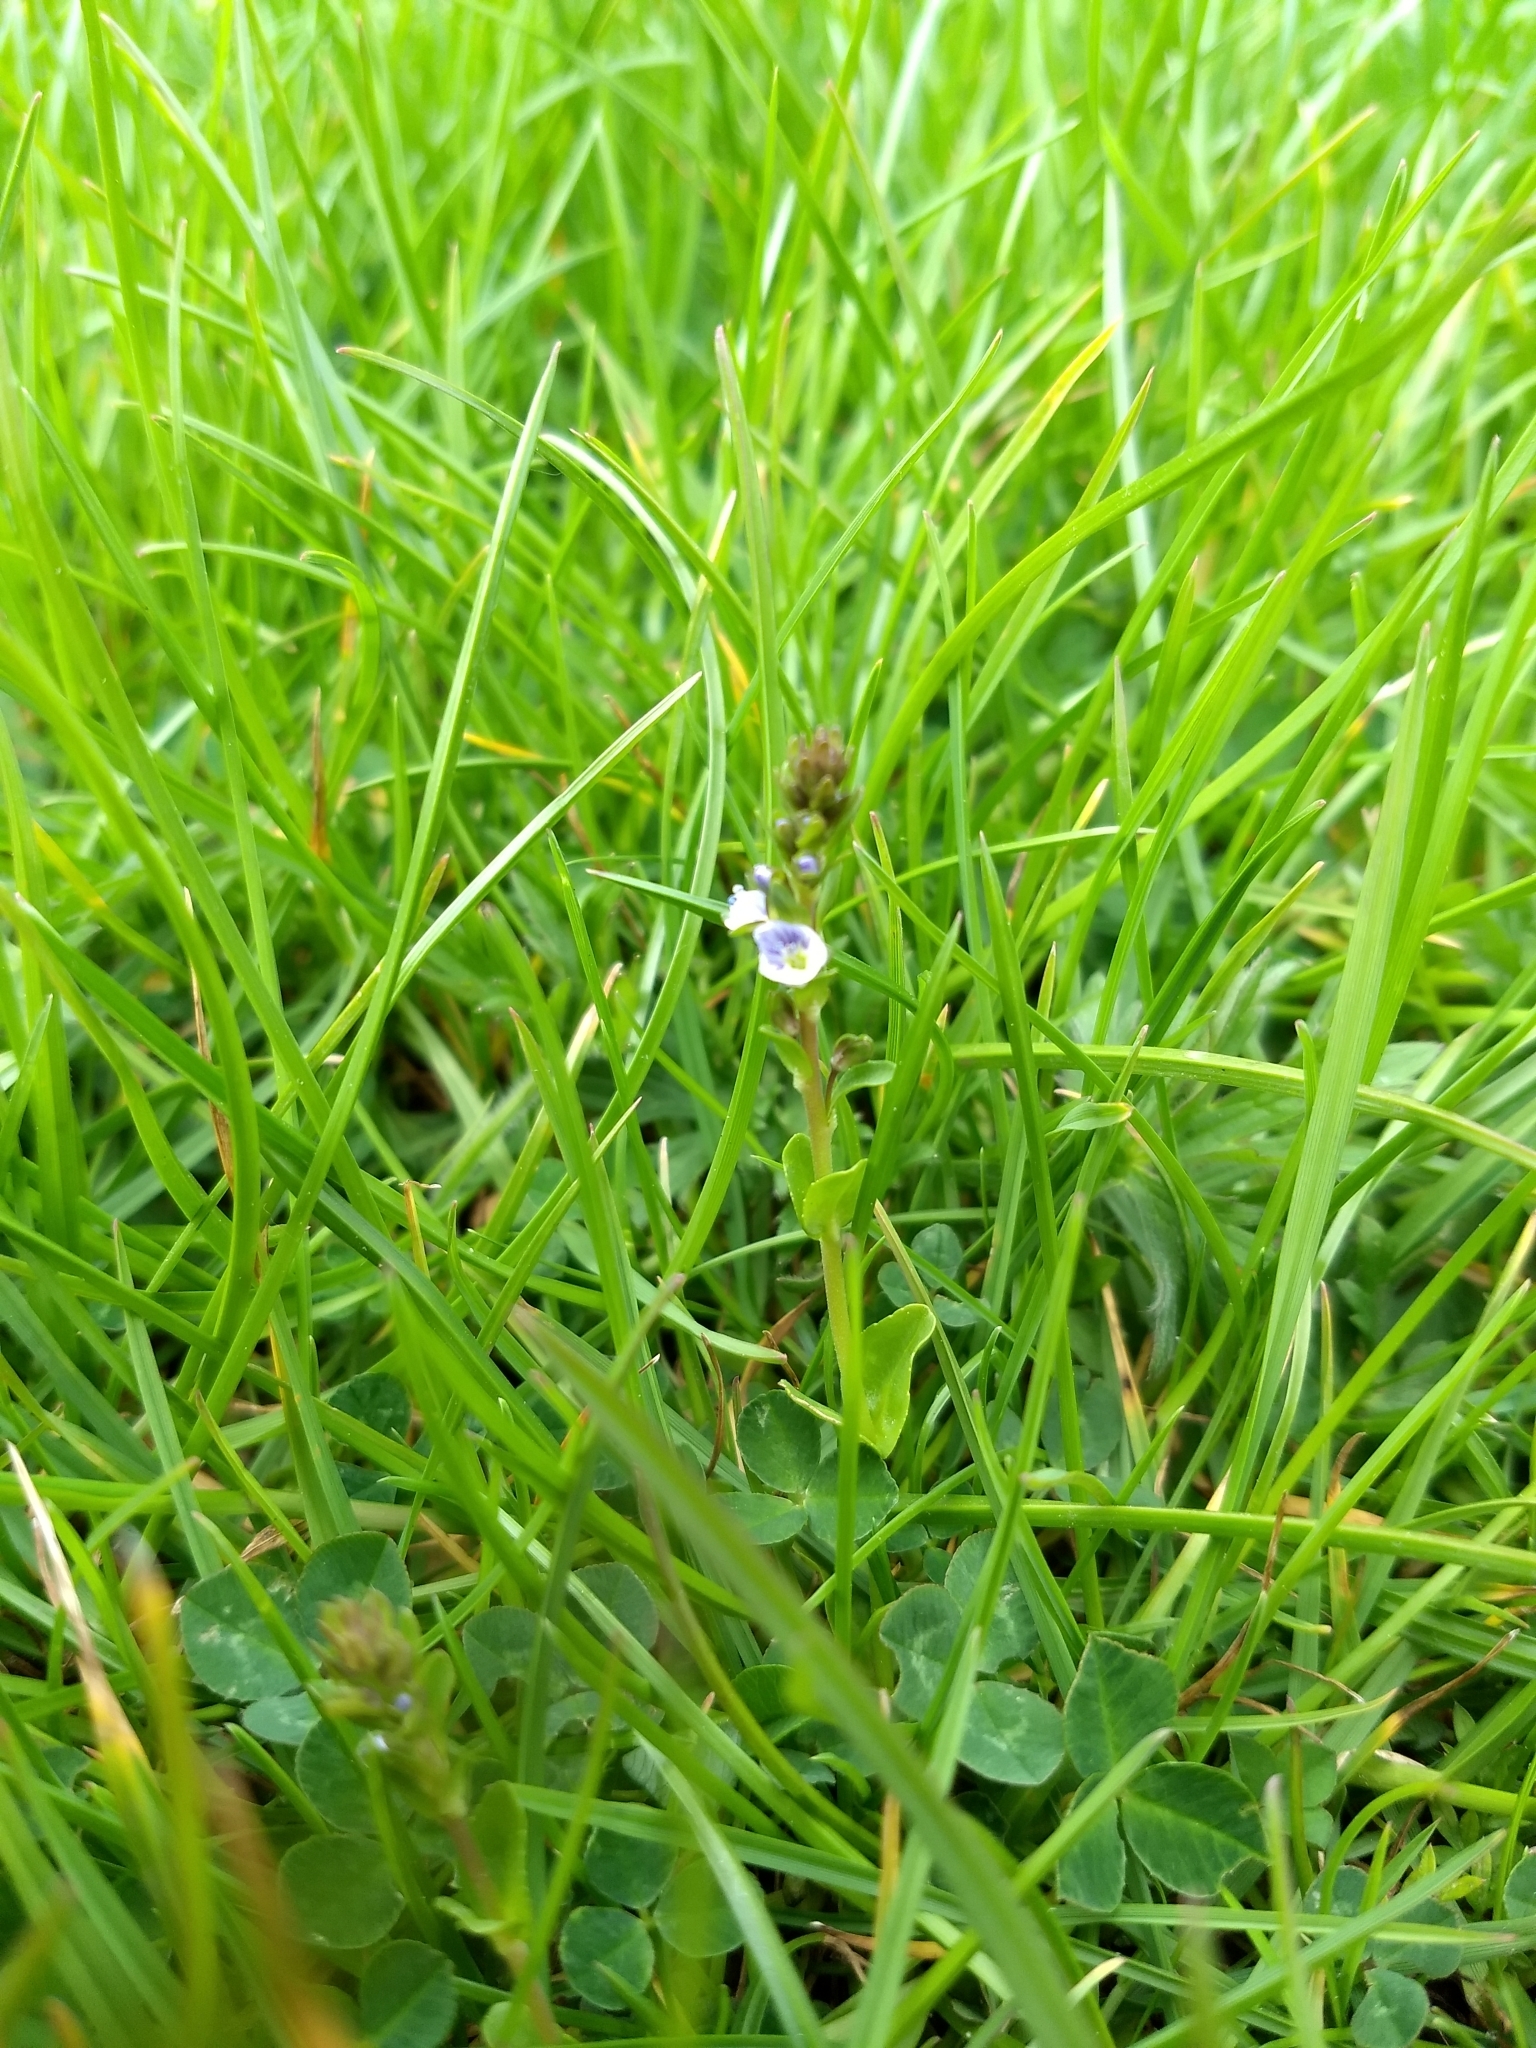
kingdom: Plantae
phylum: Tracheophyta
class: Magnoliopsida
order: Lamiales
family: Plantaginaceae
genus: Veronica
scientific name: Veronica serpyllifolia
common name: Thyme-leaved speedwell
